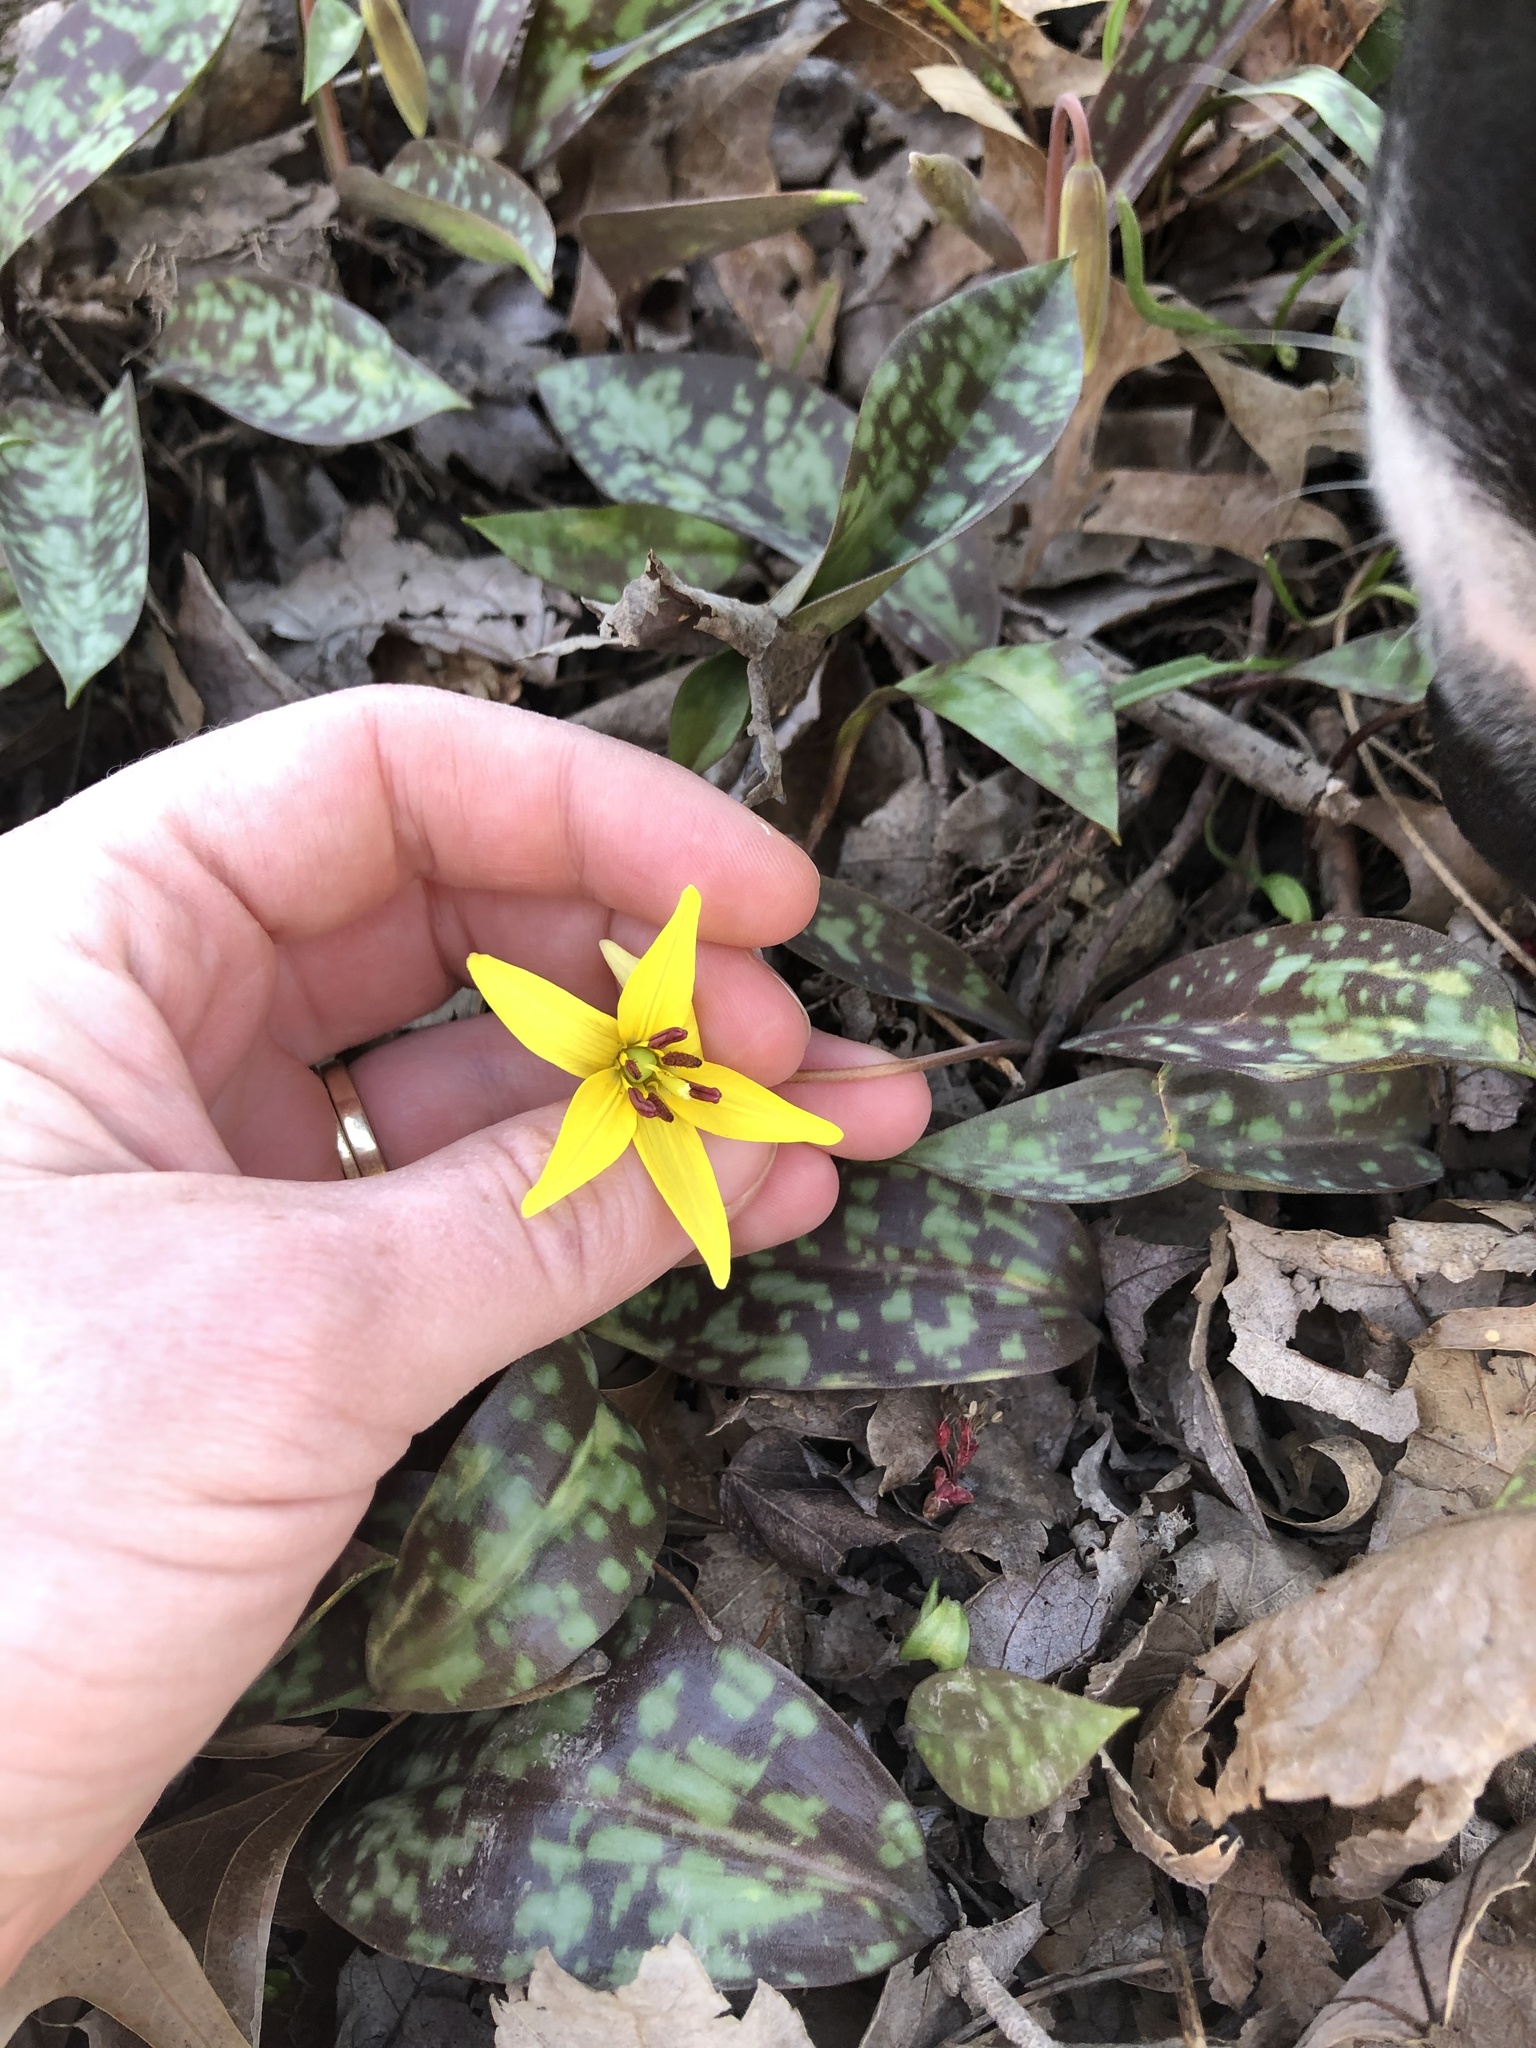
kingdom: Plantae
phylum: Tracheophyta
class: Liliopsida
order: Liliales
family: Liliaceae
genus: Erythronium
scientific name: Erythronium americanum
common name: Yellow adder's-tongue
